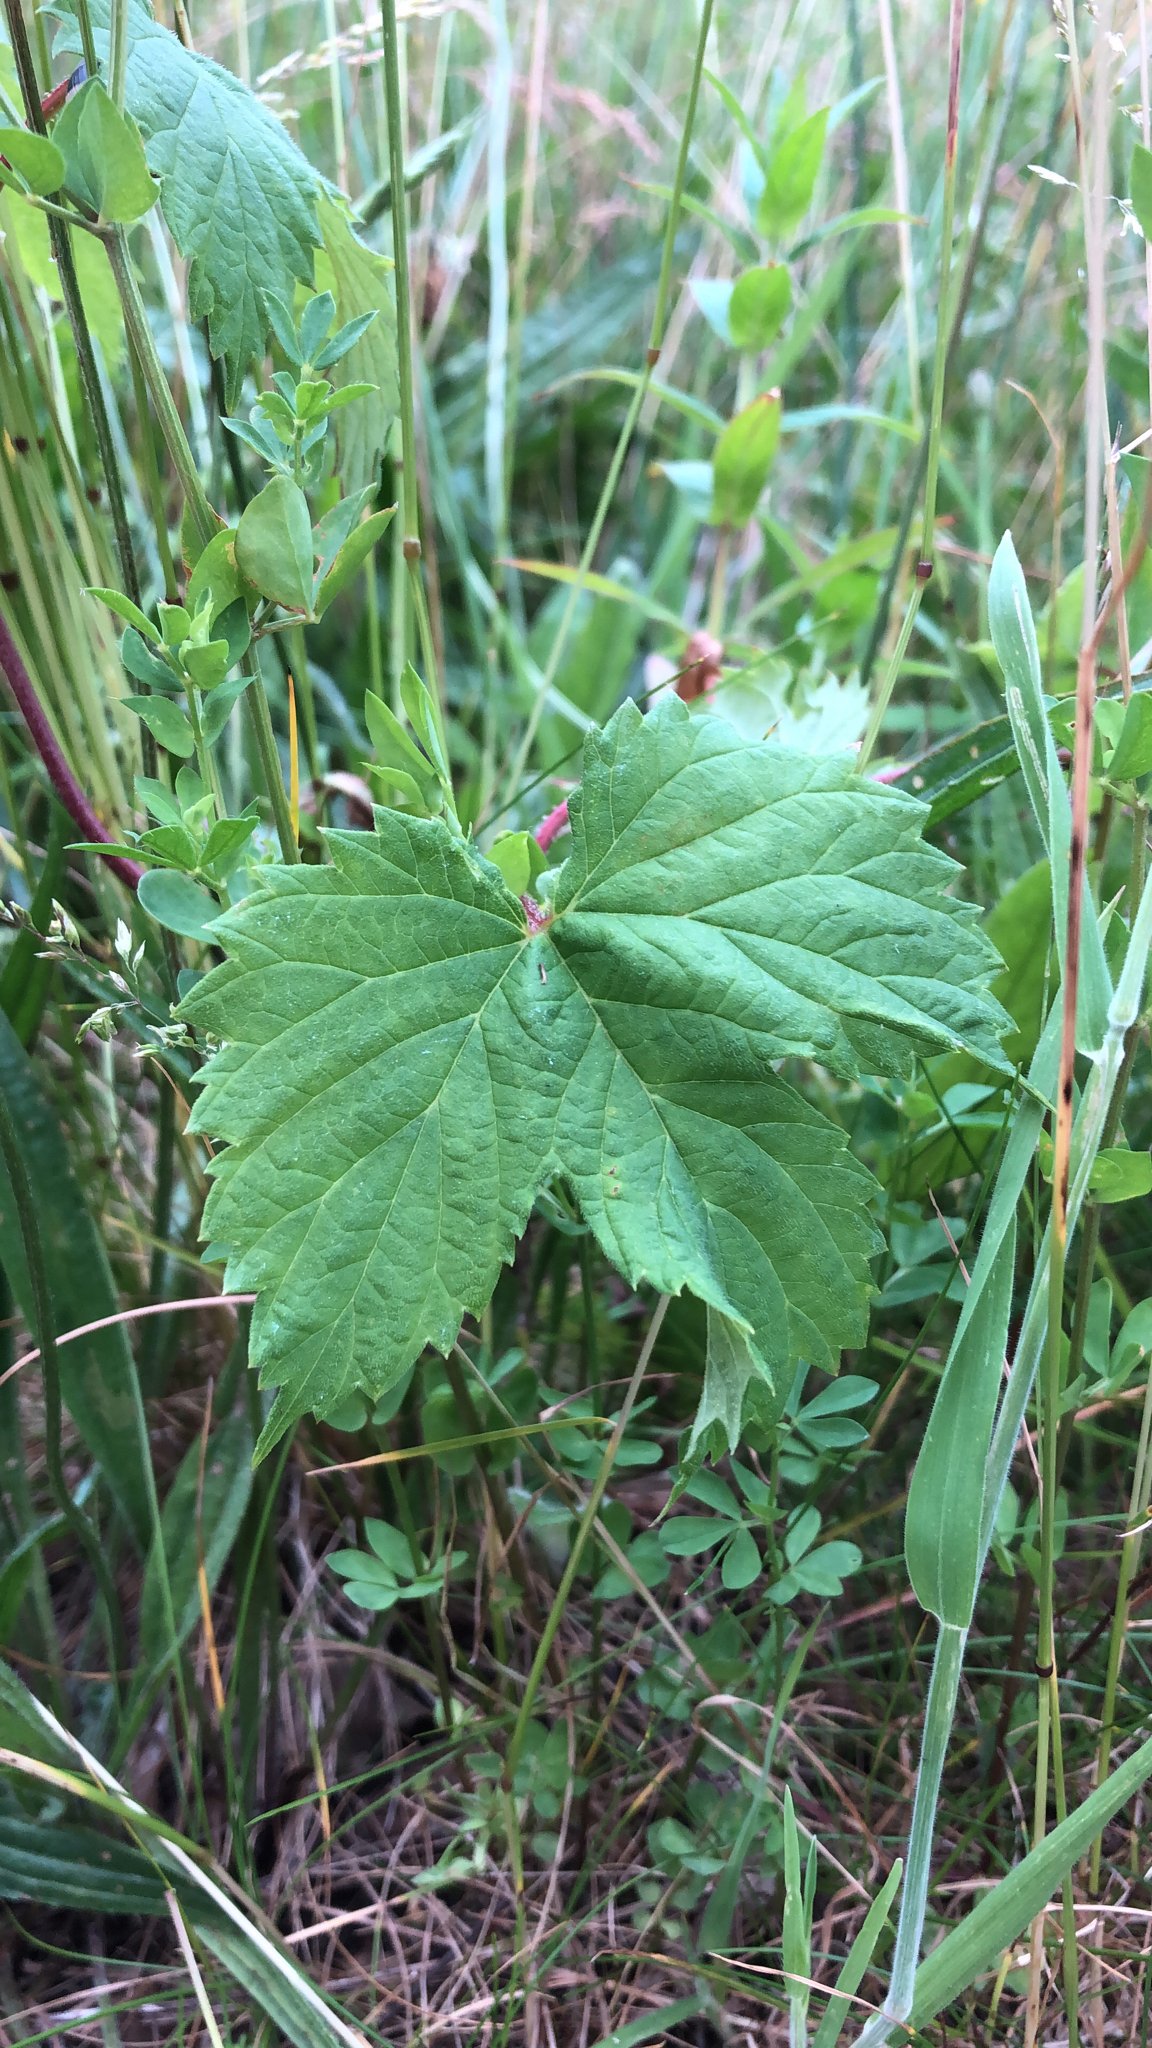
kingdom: Plantae
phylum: Tracheophyta
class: Magnoliopsida
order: Rosales
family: Cannabaceae
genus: Humulus
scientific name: Humulus lupulus
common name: Hop
